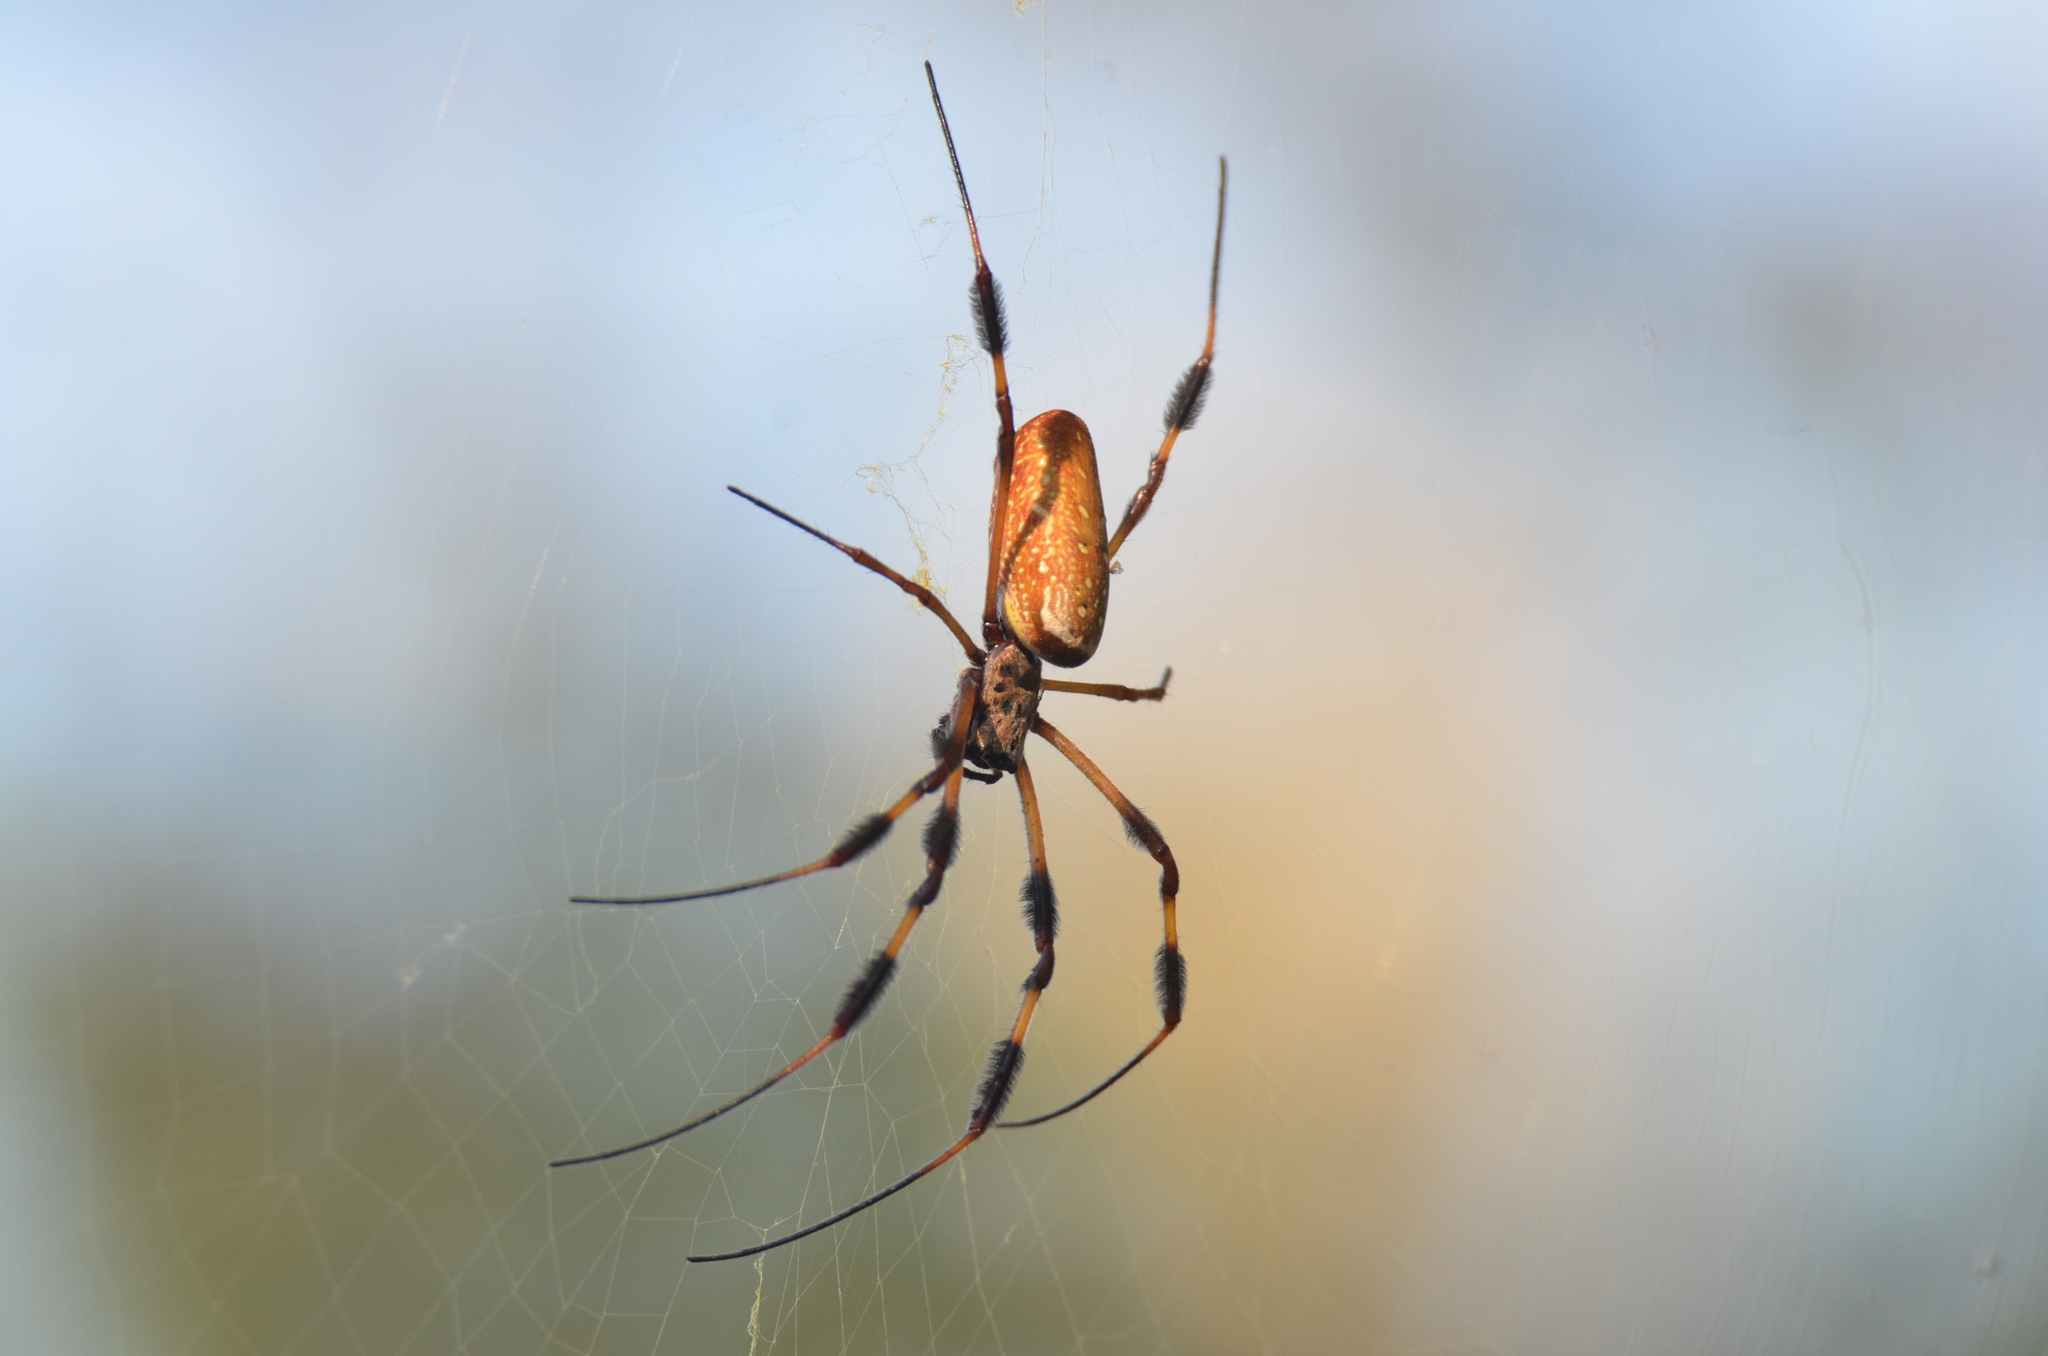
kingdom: Animalia
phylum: Arthropoda
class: Arachnida
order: Araneae
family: Araneidae
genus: Trichonephila
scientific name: Trichonephila clavipes
